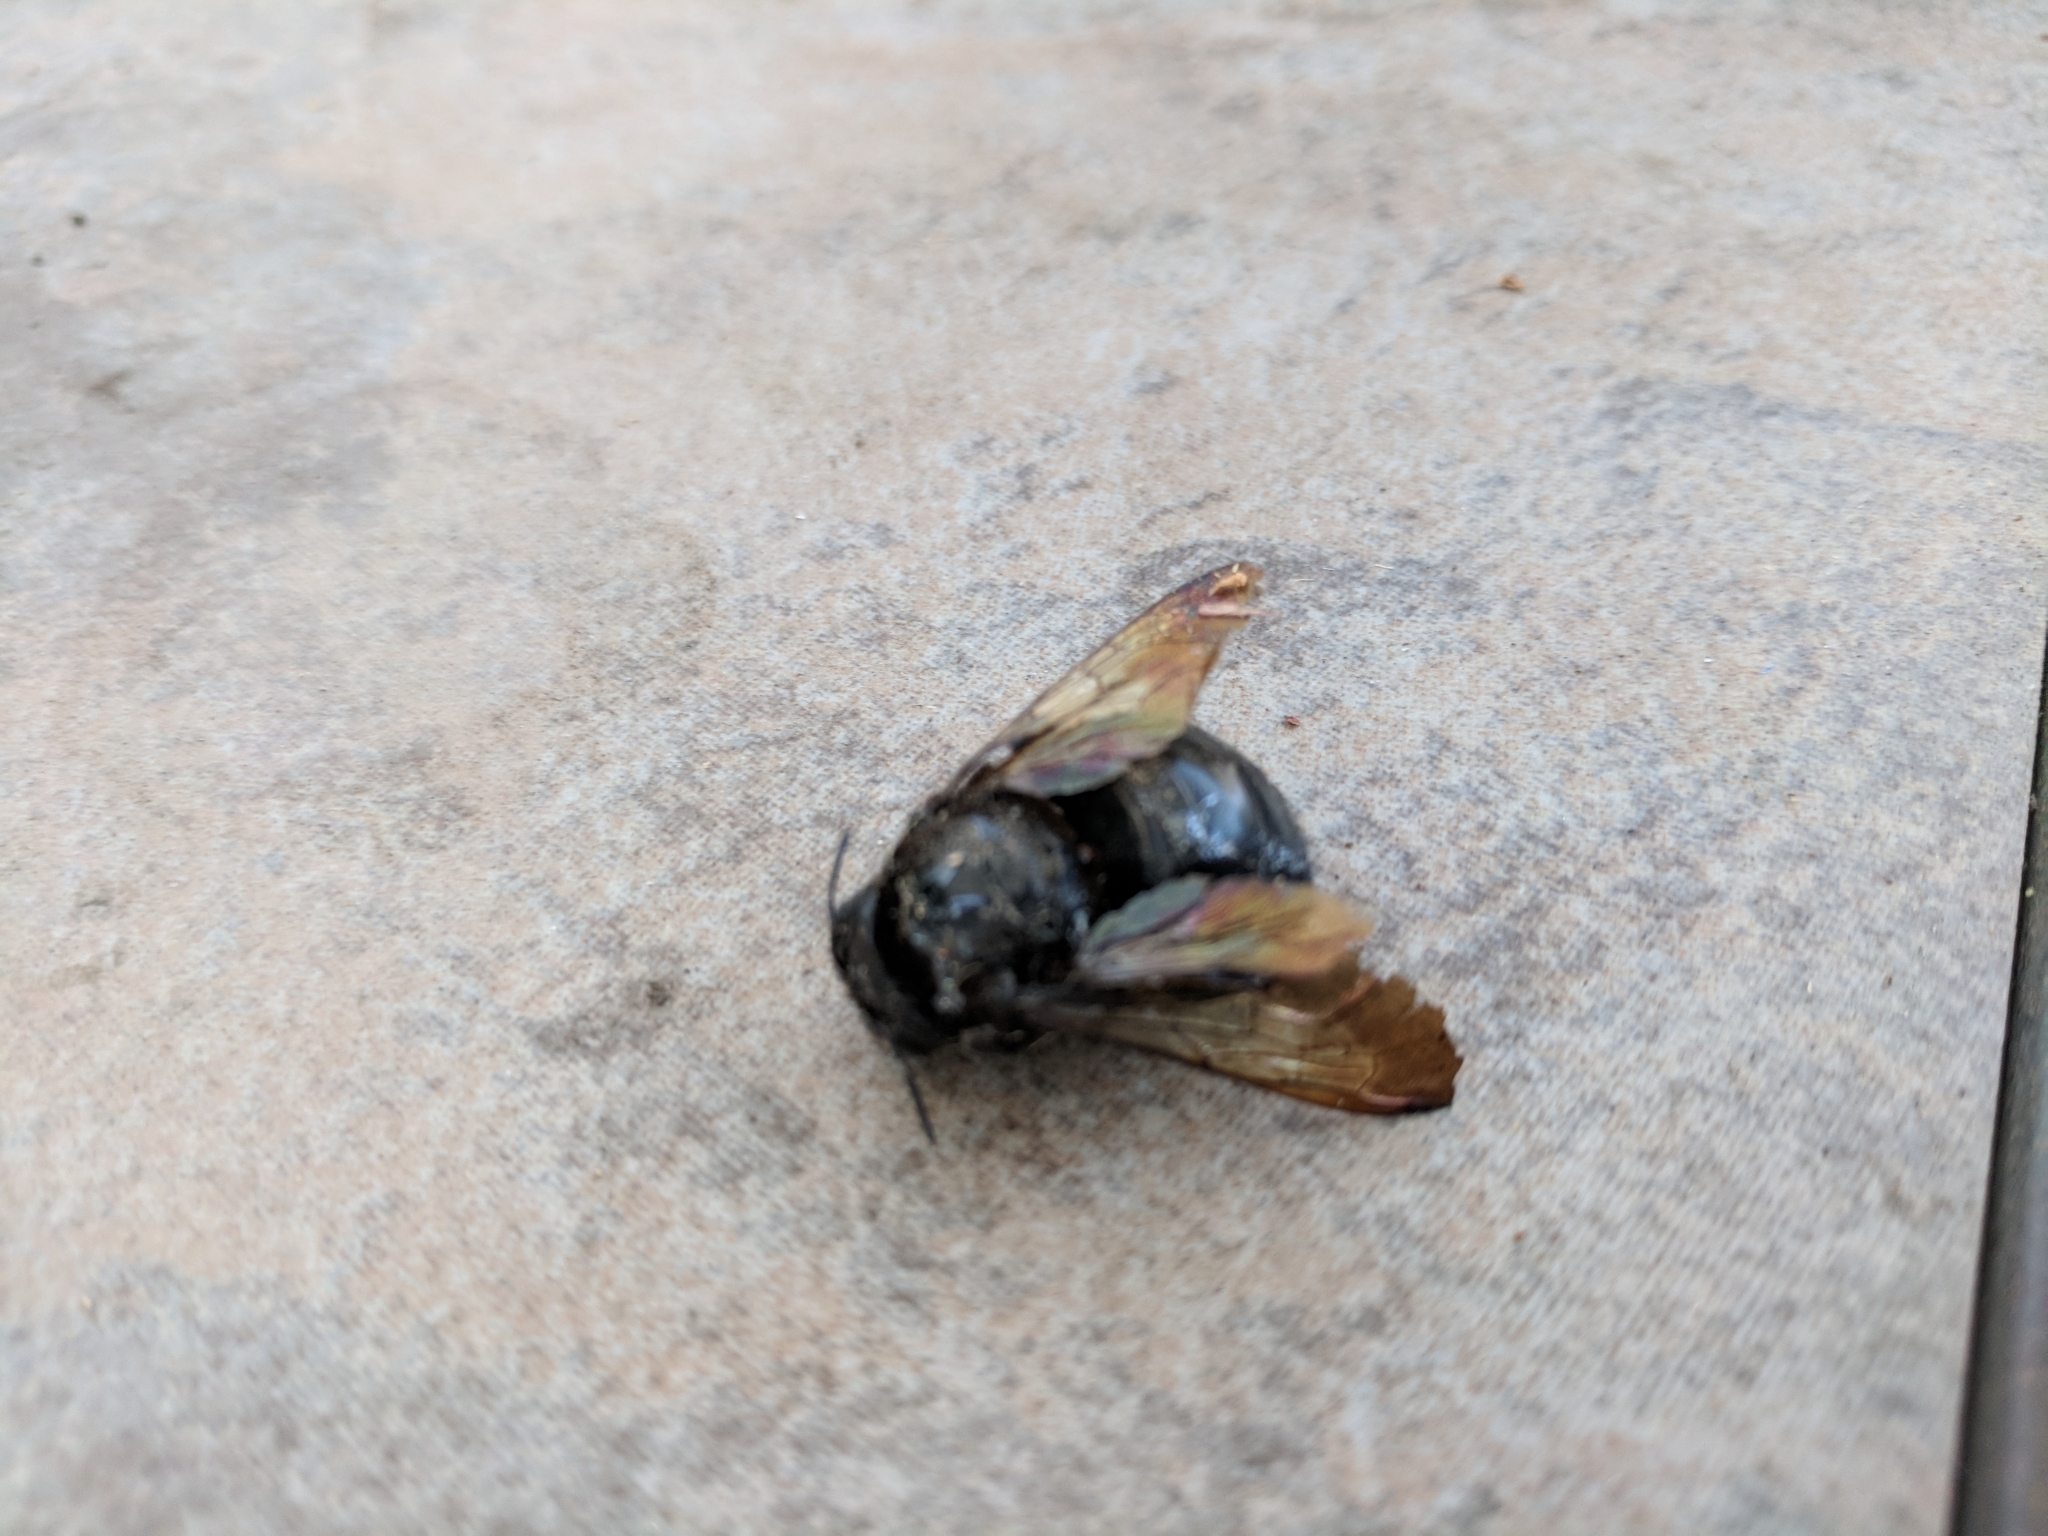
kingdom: Animalia
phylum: Arthropoda
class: Insecta
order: Hymenoptera
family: Apidae
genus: Xylocopa
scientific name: Xylocopa sonorina
